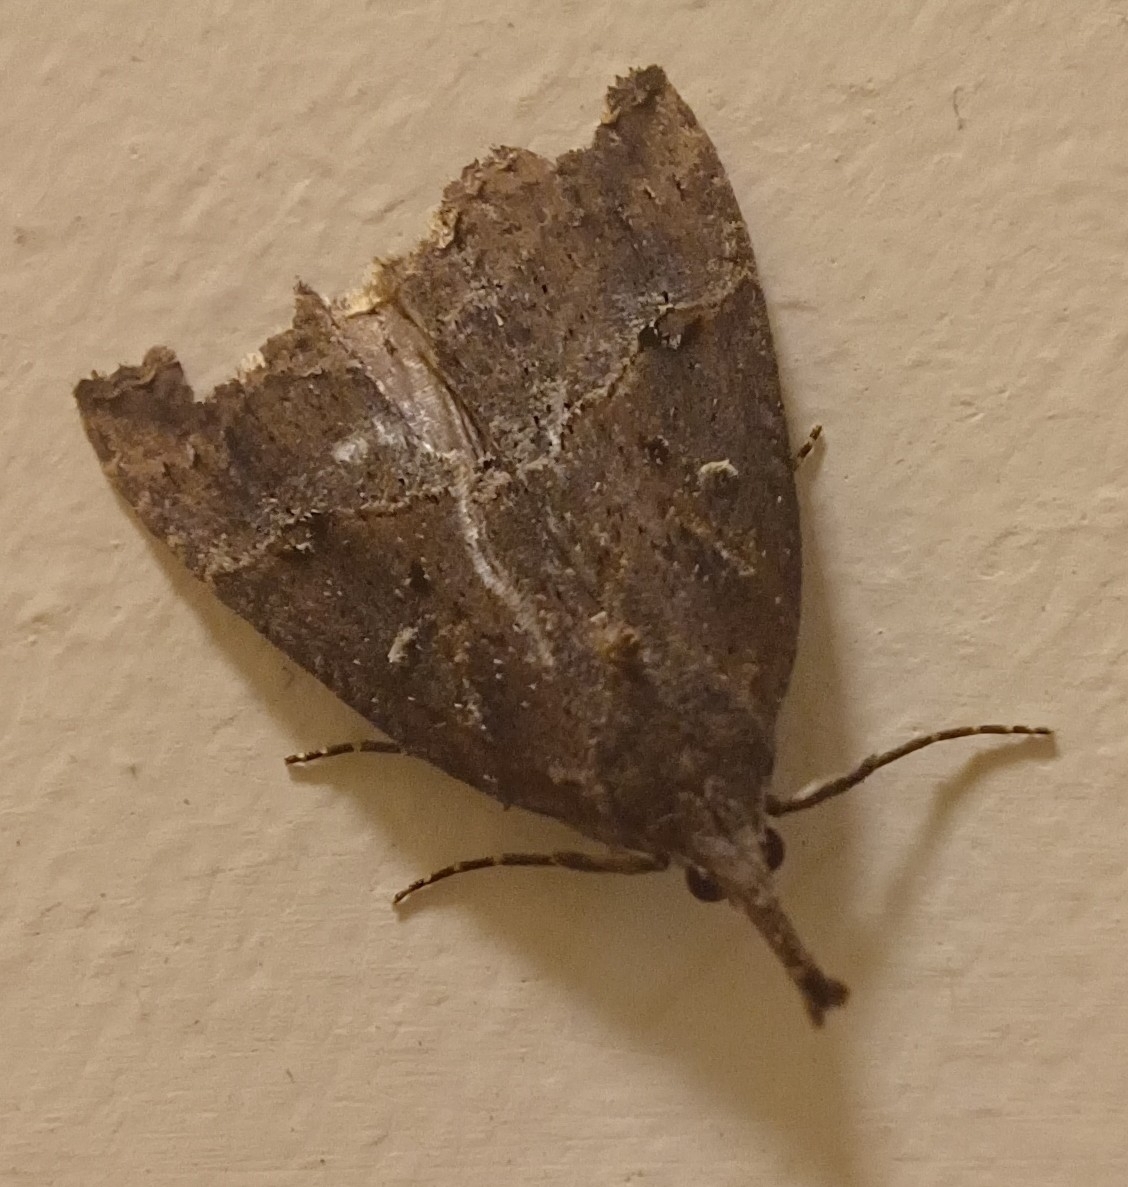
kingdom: Animalia
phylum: Arthropoda
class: Insecta
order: Lepidoptera
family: Erebidae
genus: Hypena
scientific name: Hypena rostralis
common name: Buttoned snout
